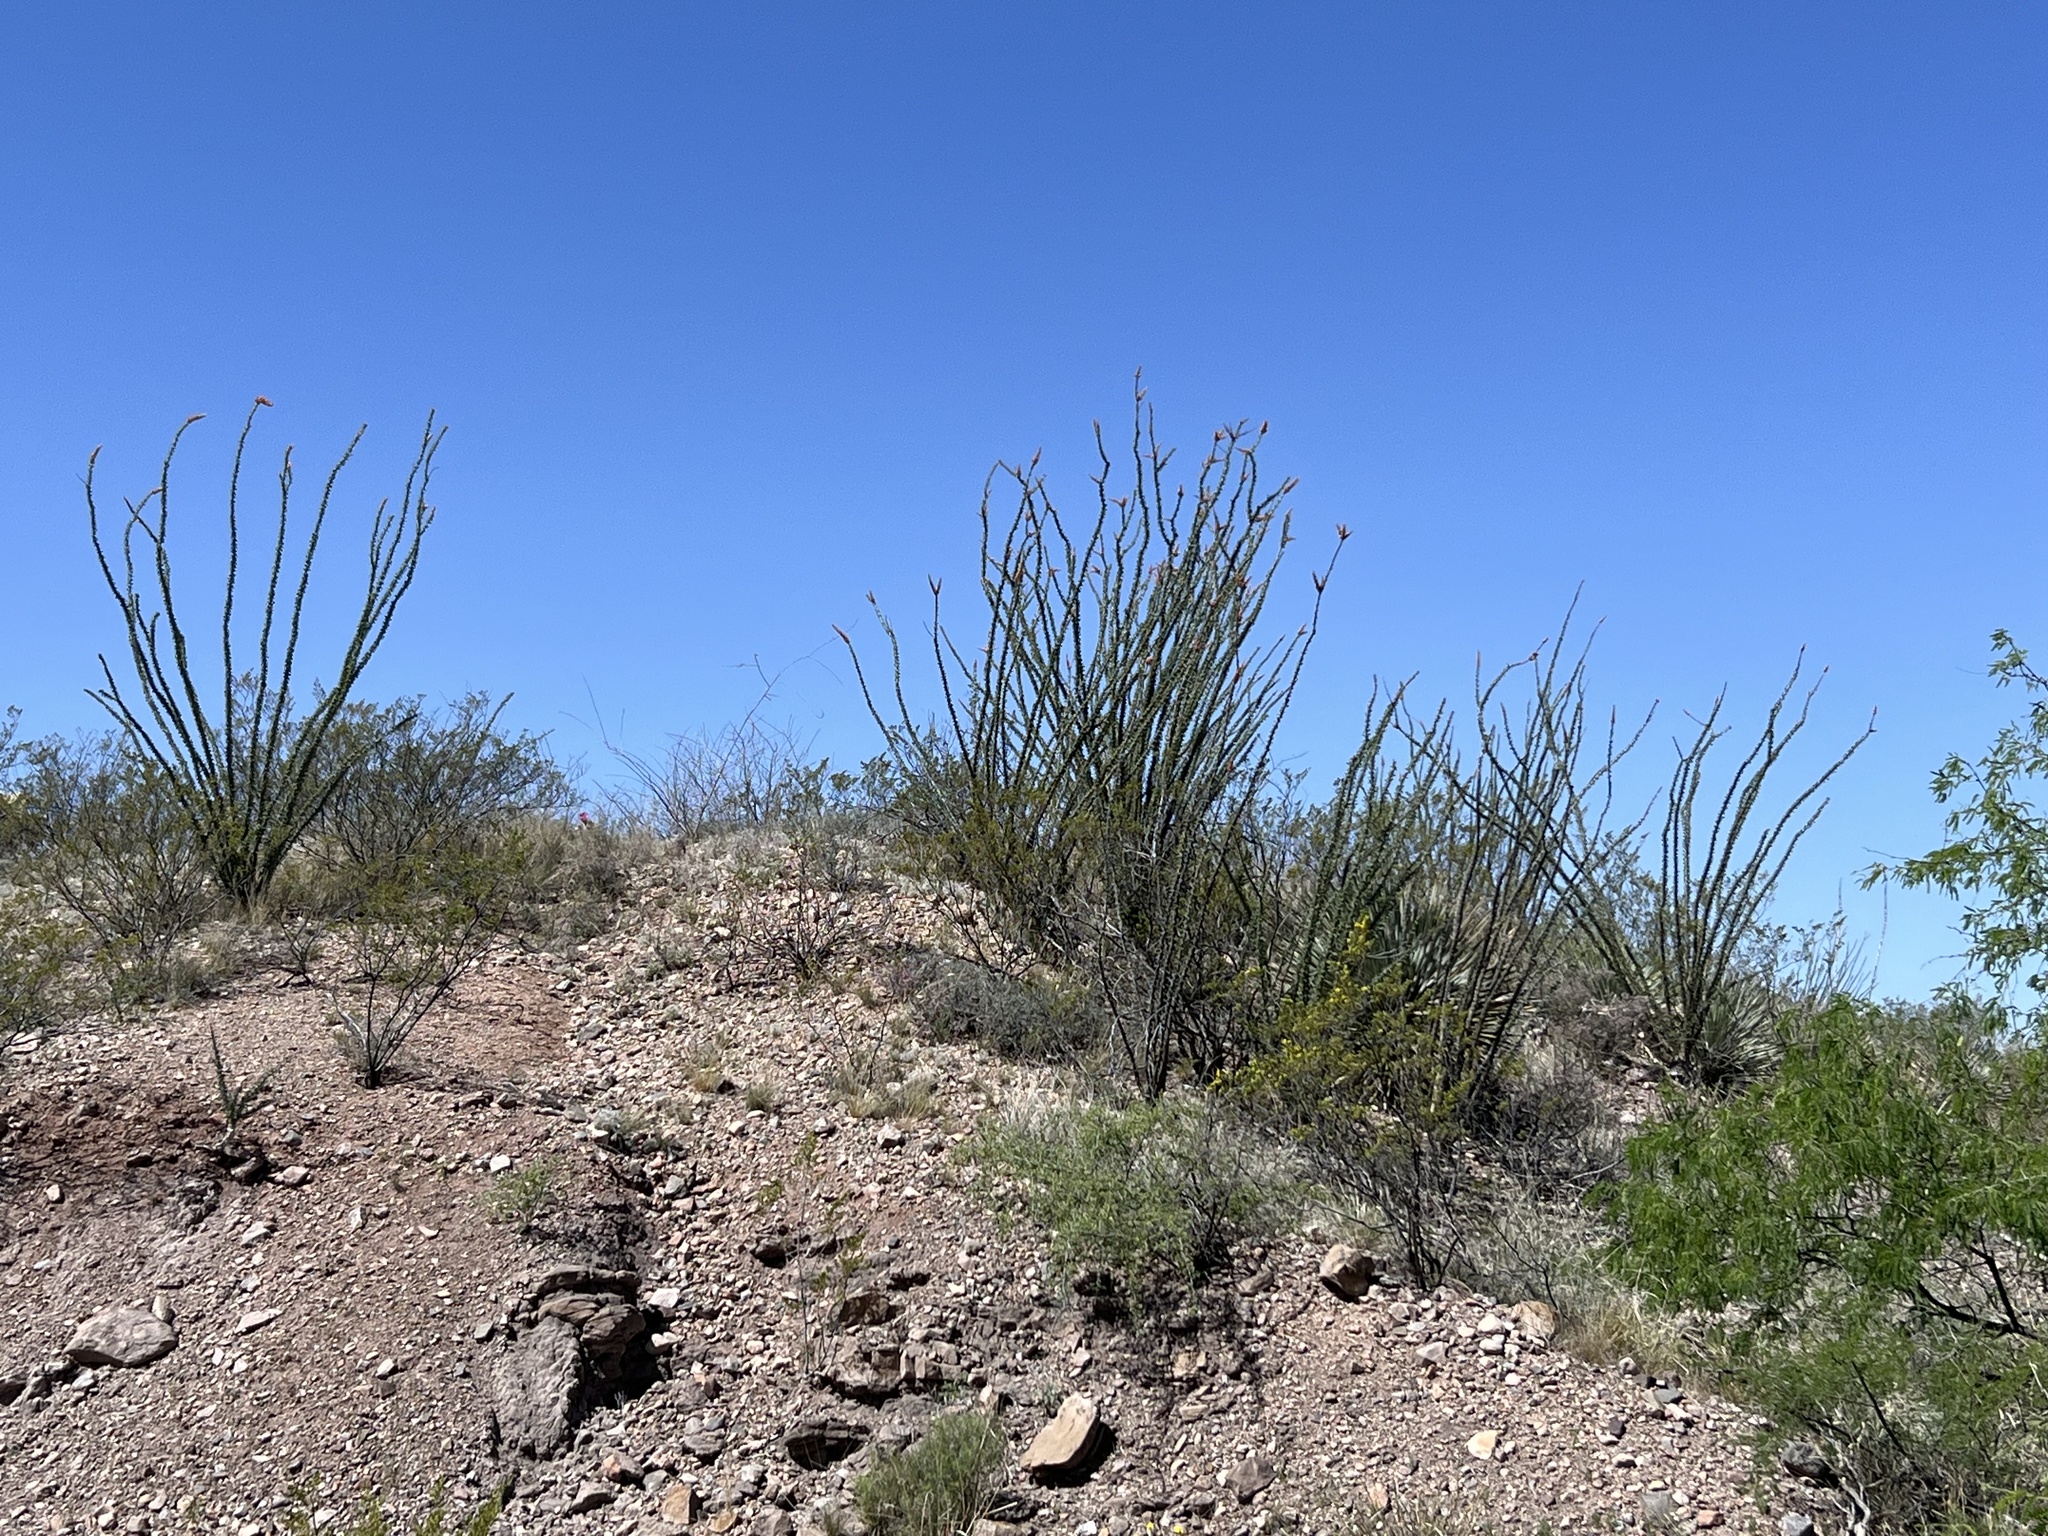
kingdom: Plantae
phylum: Tracheophyta
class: Magnoliopsida
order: Ericales
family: Fouquieriaceae
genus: Fouquieria
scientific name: Fouquieria splendens
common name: Vine-cactus
